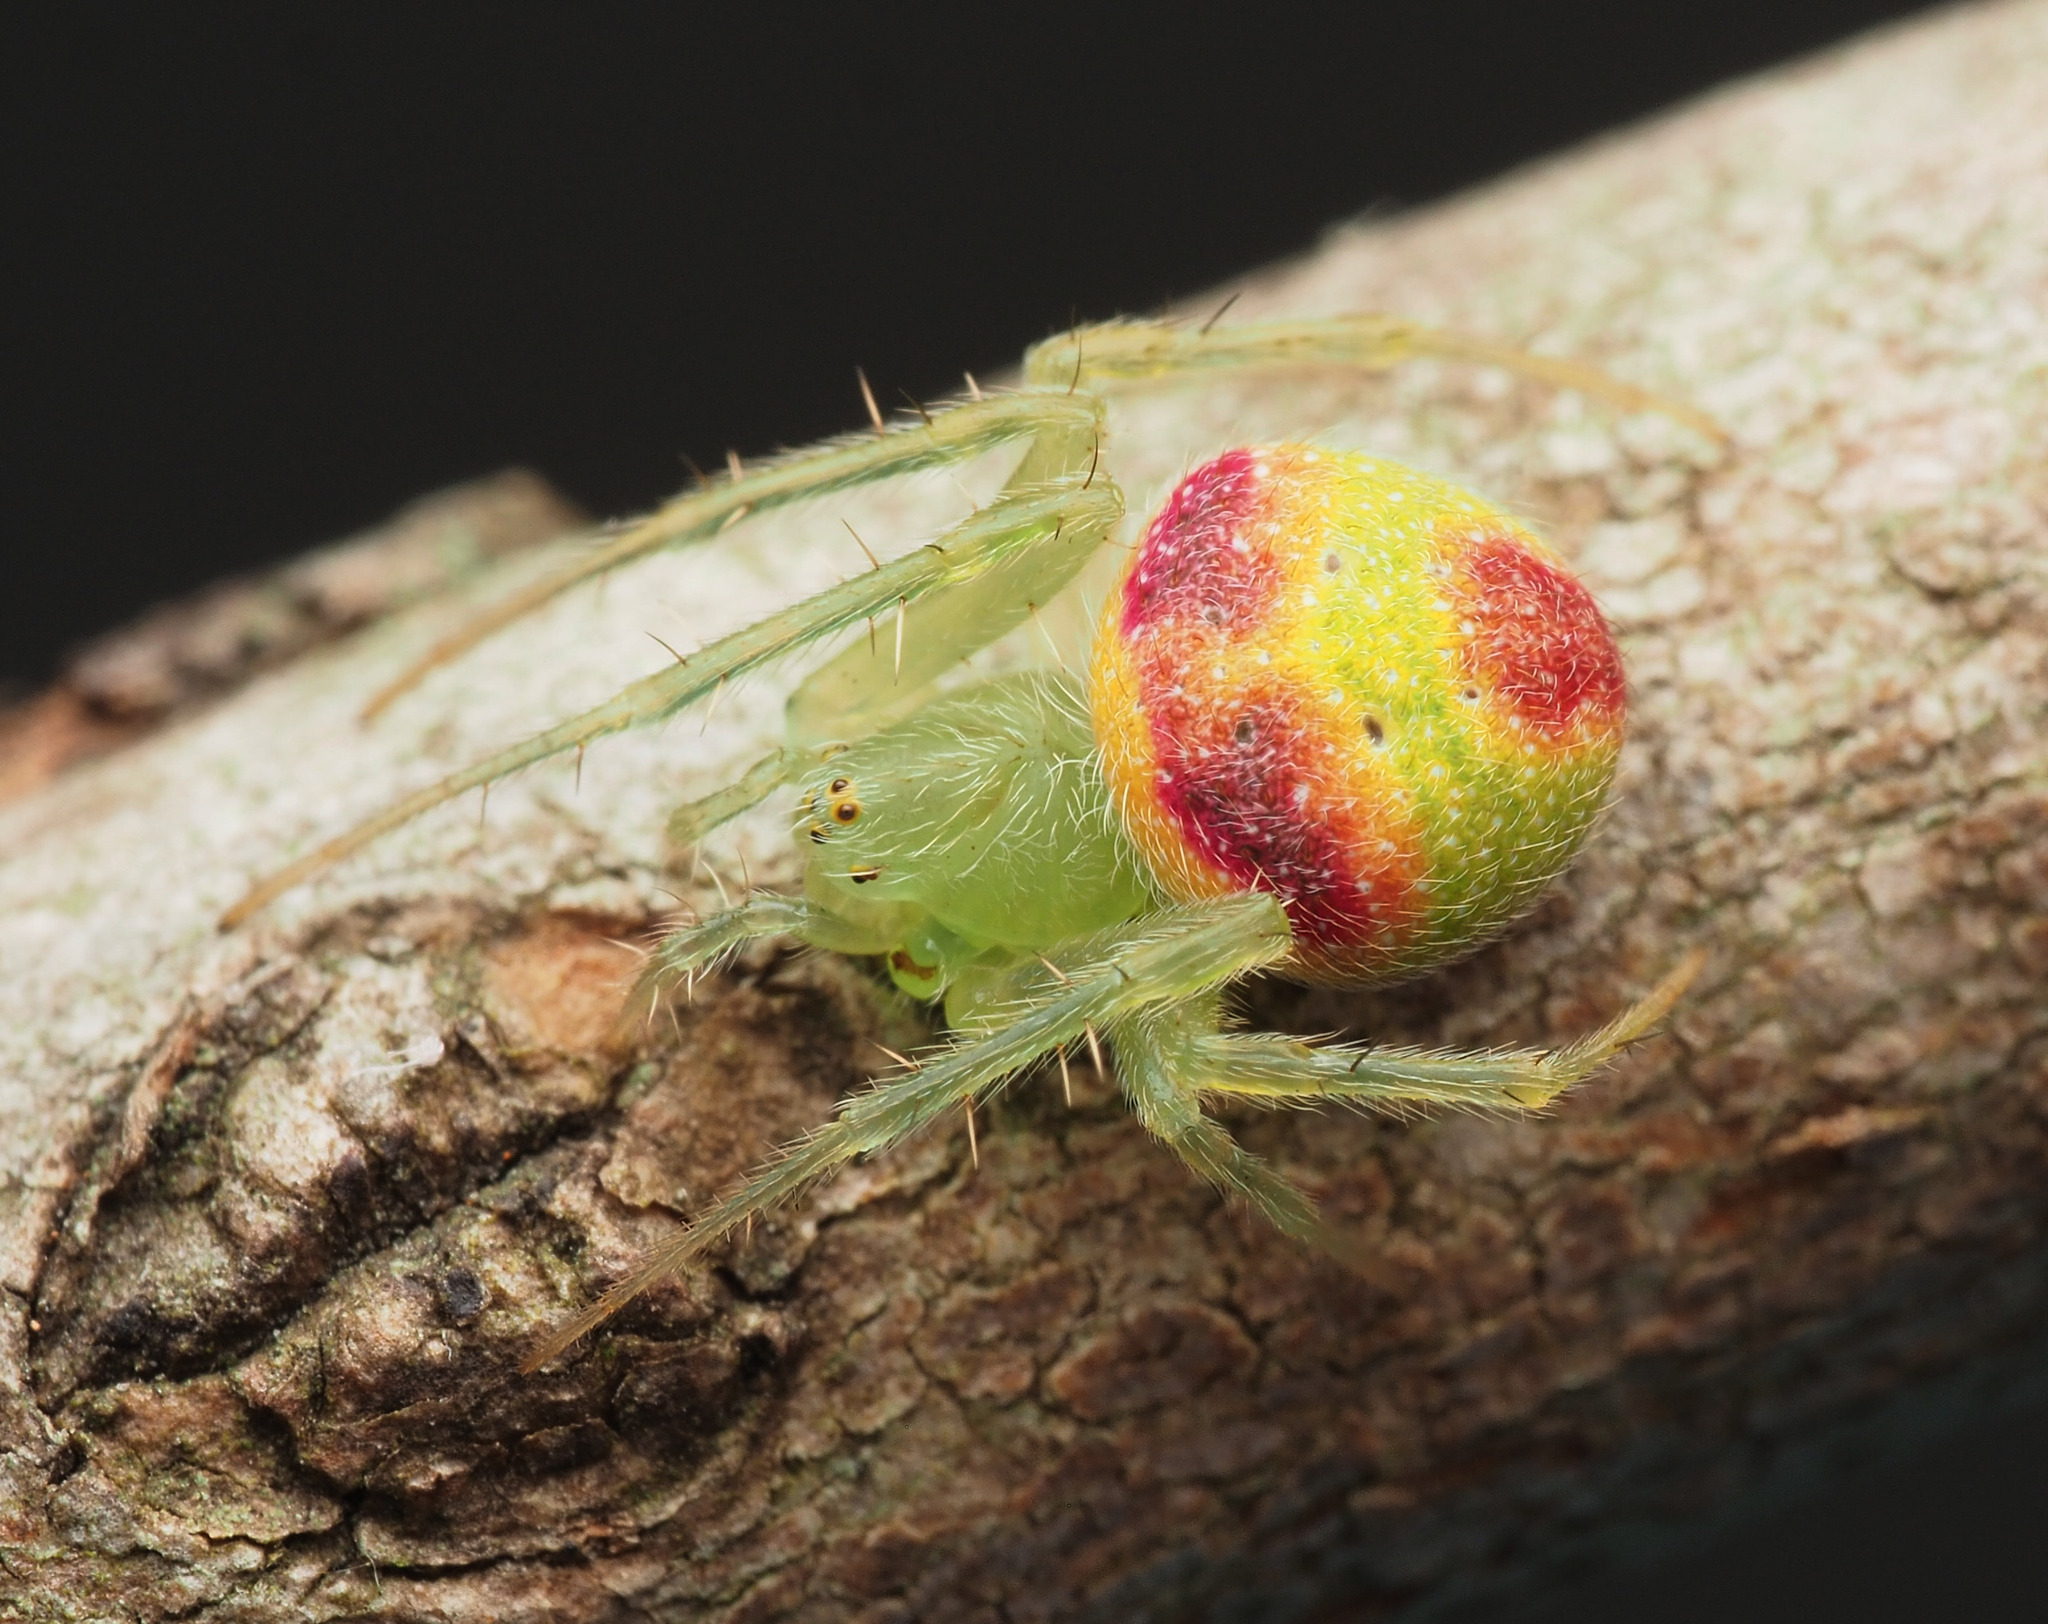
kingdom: Animalia
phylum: Arthropoda
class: Arachnida
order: Araneae
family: Araneidae
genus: Araneus
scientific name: Araneus circulissparsus
